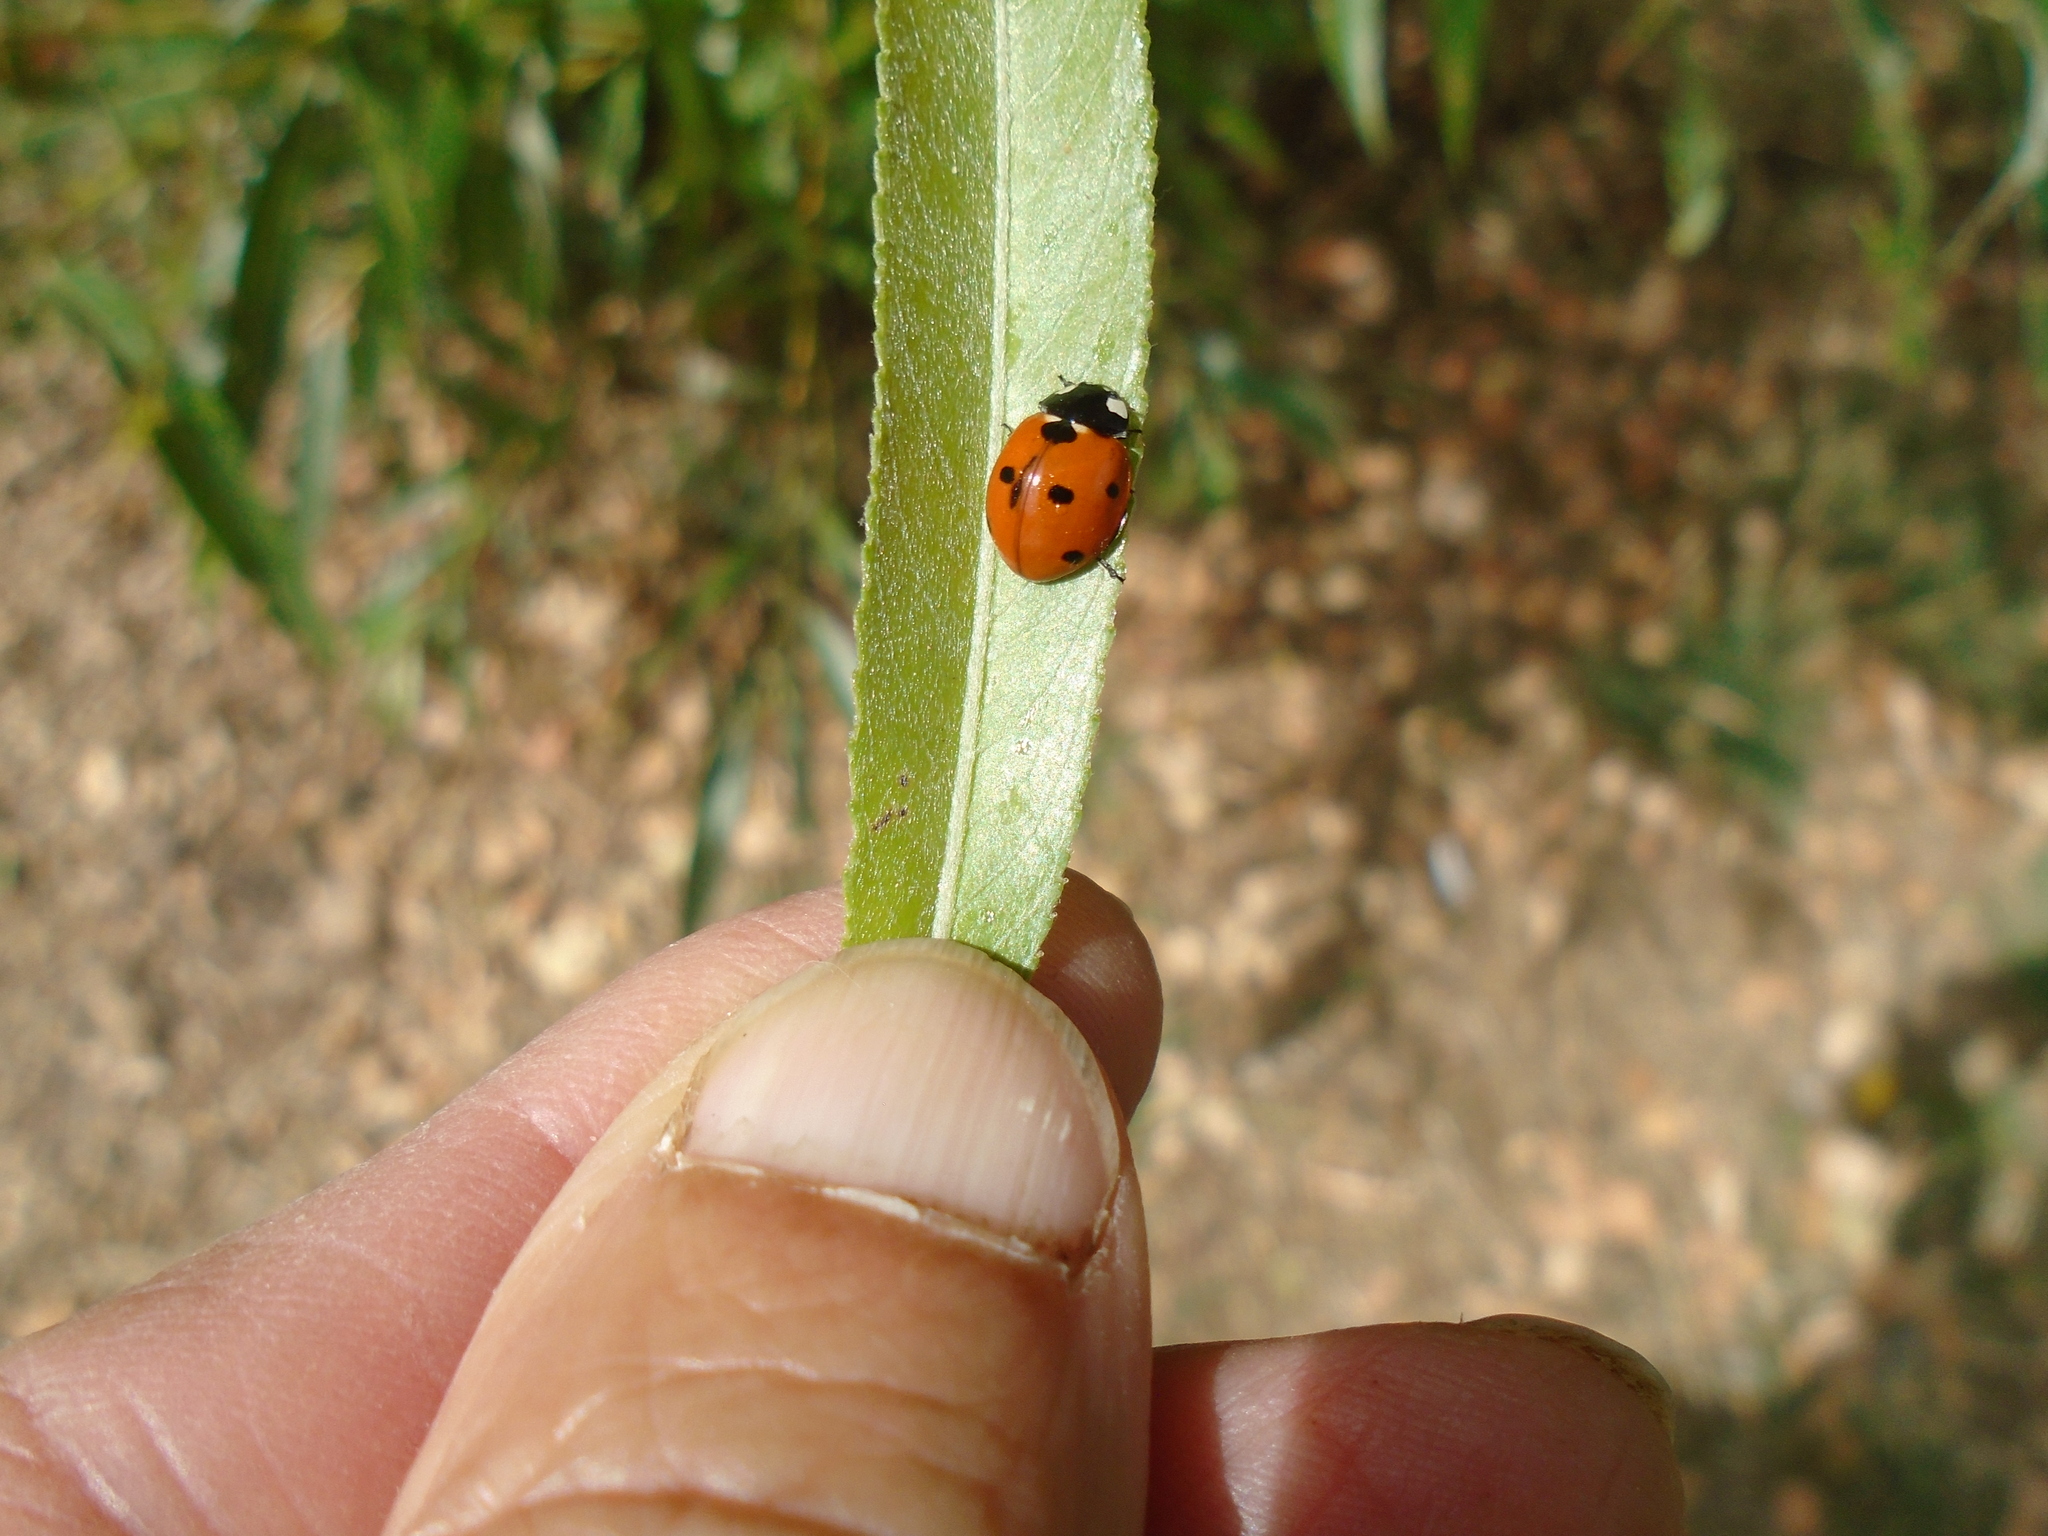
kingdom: Animalia
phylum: Arthropoda
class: Insecta
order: Coleoptera
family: Coccinellidae
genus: Coccinella
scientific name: Coccinella septempunctata
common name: Sevenspotted lady beetle
